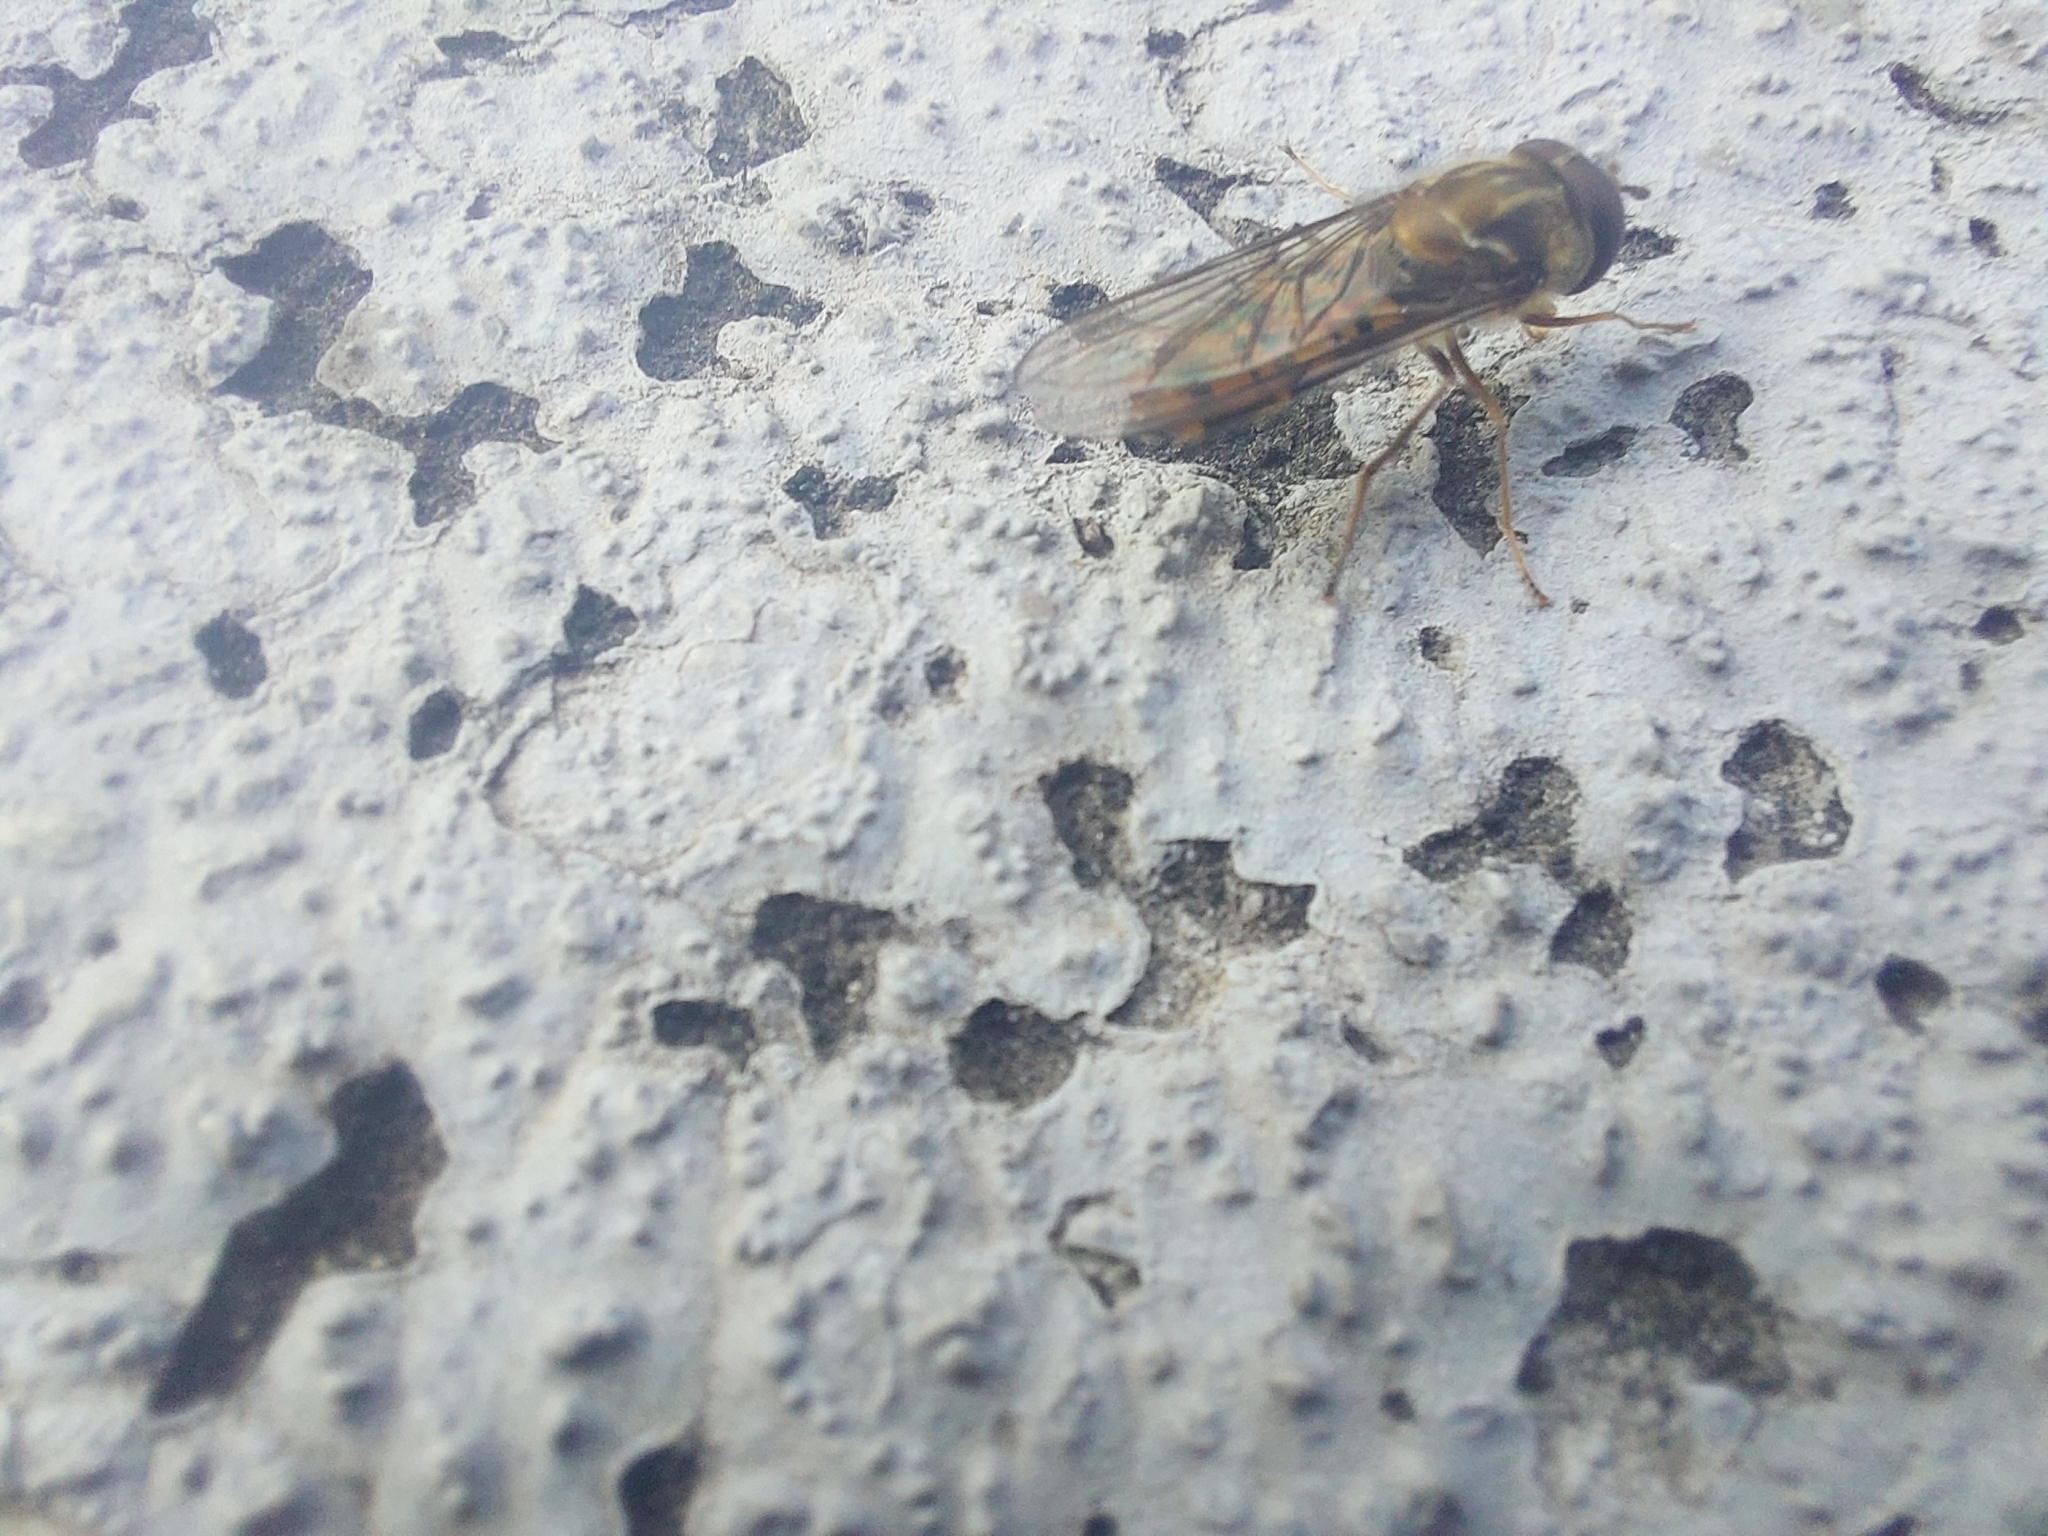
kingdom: Animalia
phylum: Arthropoda
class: Insecta
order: Diptera
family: Syrphidae
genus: Episyrphus
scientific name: Episyrphus balteatus
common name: Marmalade hoverfly
